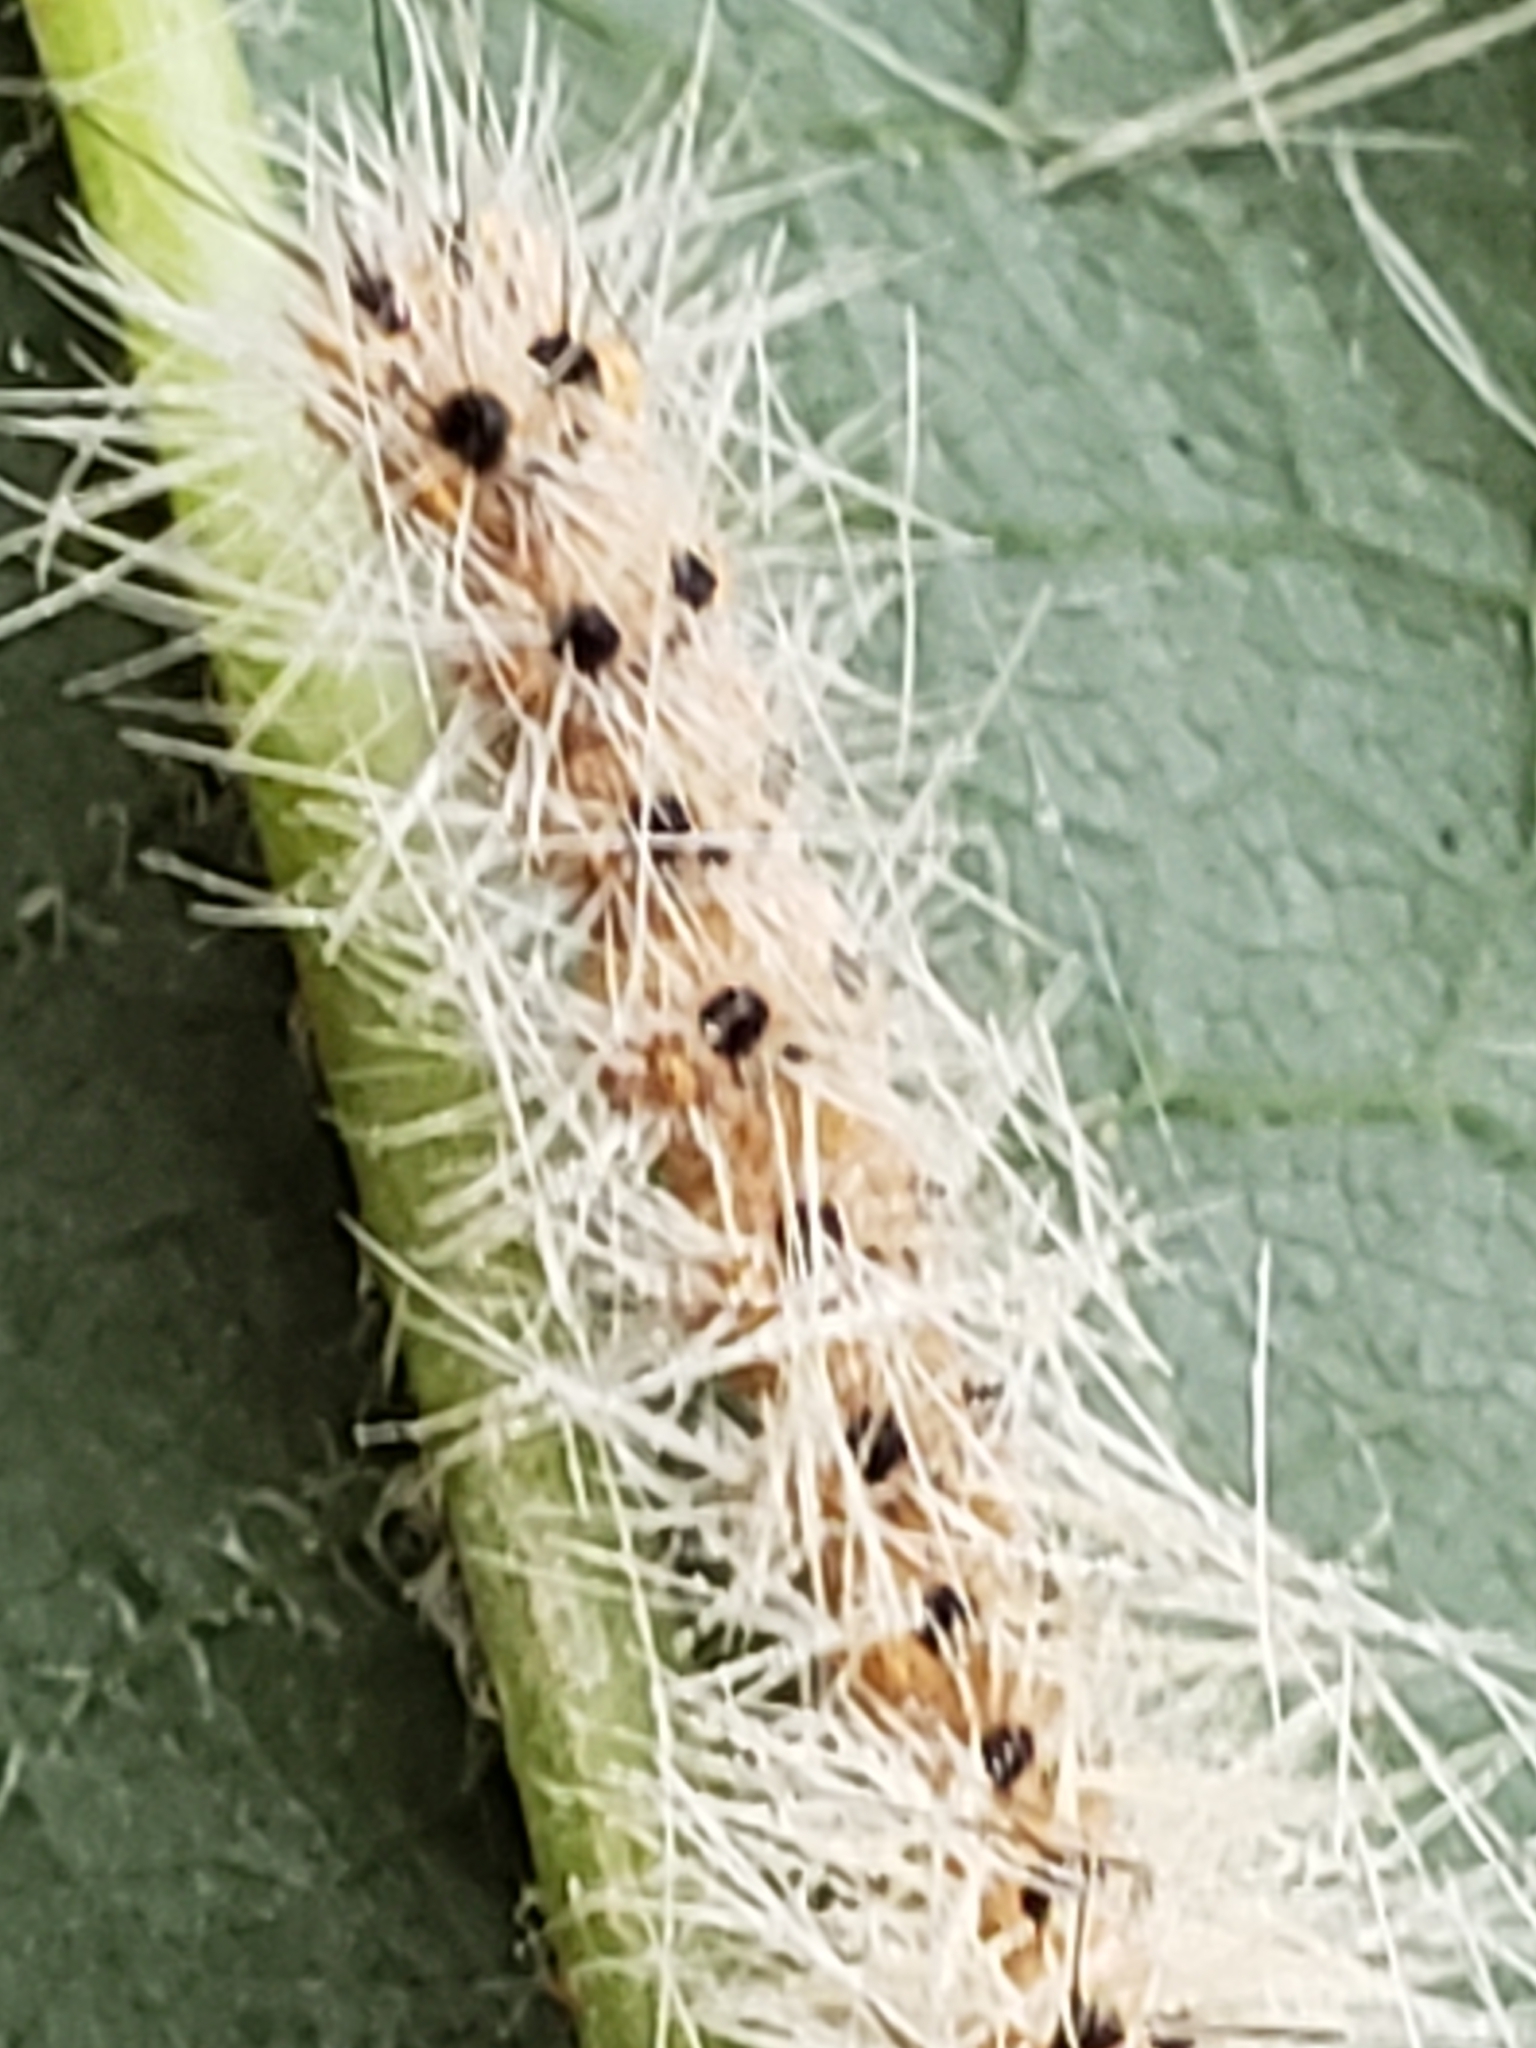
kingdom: Animalia
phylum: Arthropoda
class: Insecta
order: Lepidoptera
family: Erebidae
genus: Hyphantria
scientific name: Hyphantria cunea
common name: American white moth
